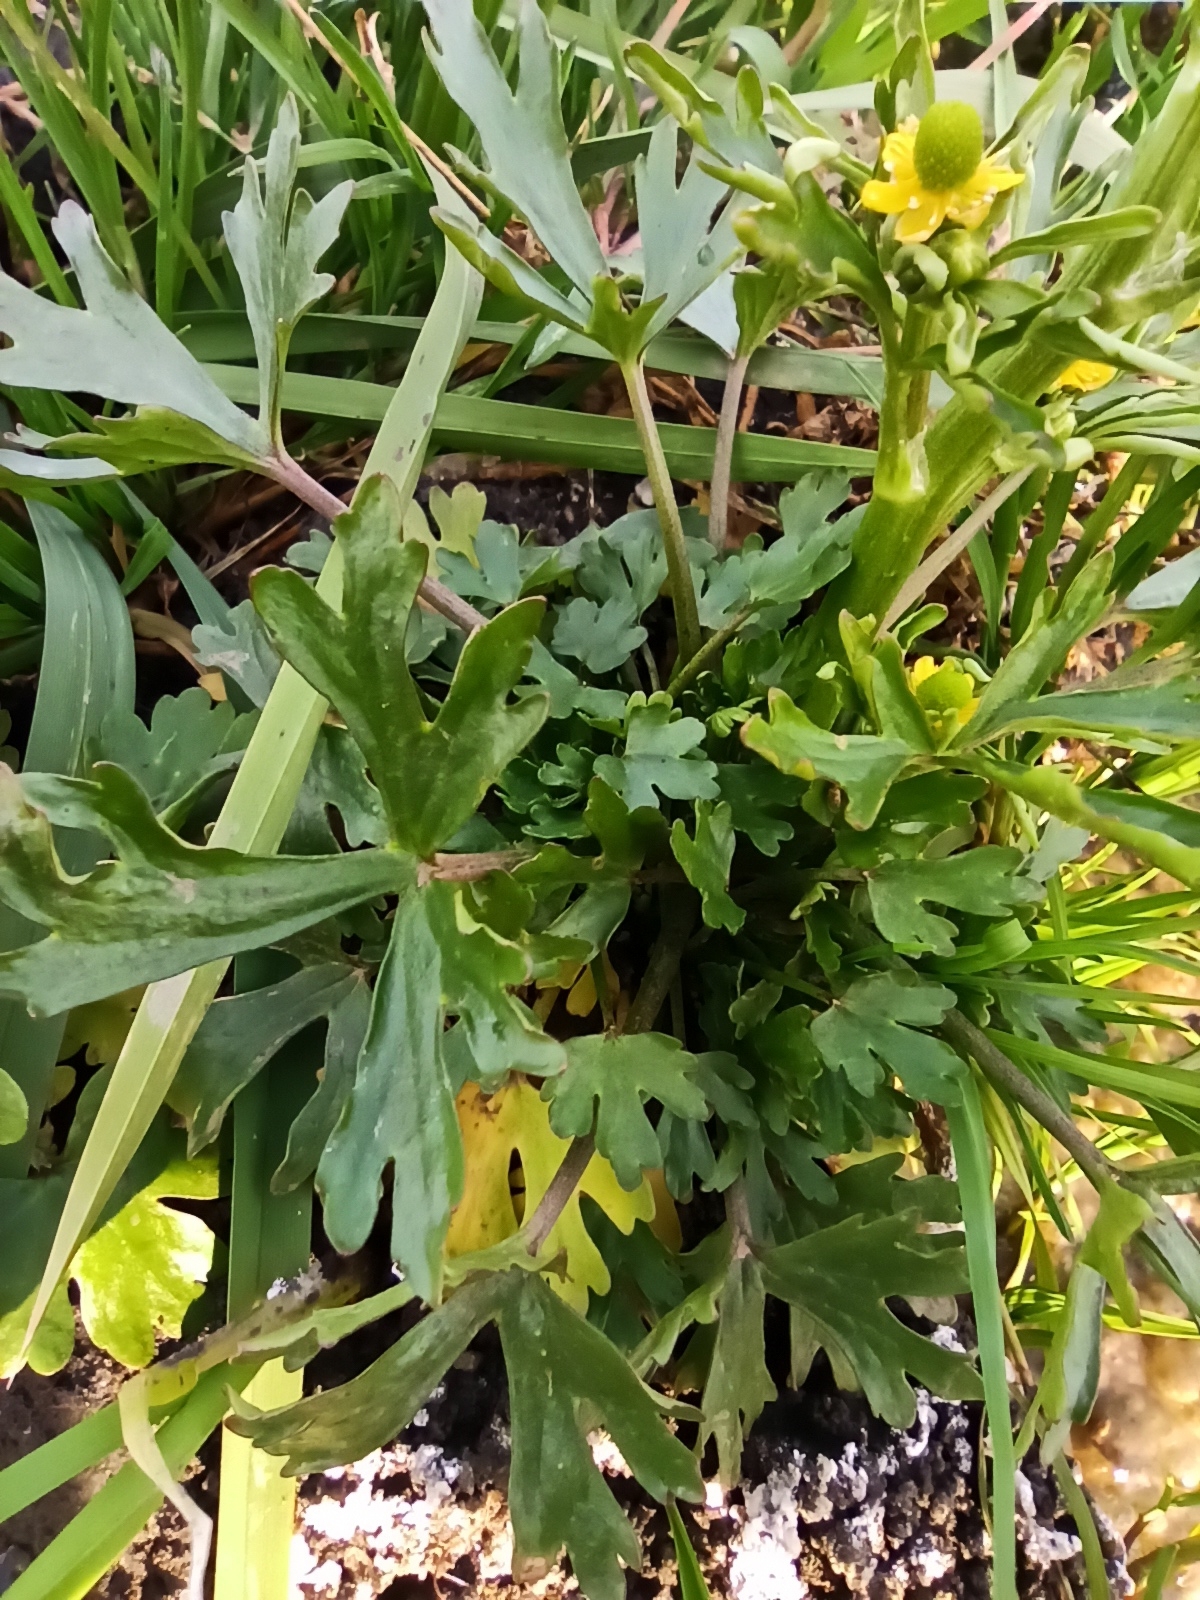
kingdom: Plantae
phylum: Tracheophyta
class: Magnoliopsida
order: Ranunculales
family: Ranunculaceae
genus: Ranunculus
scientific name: Ranunculus sceleratus
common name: Celery-leaved buttercup
